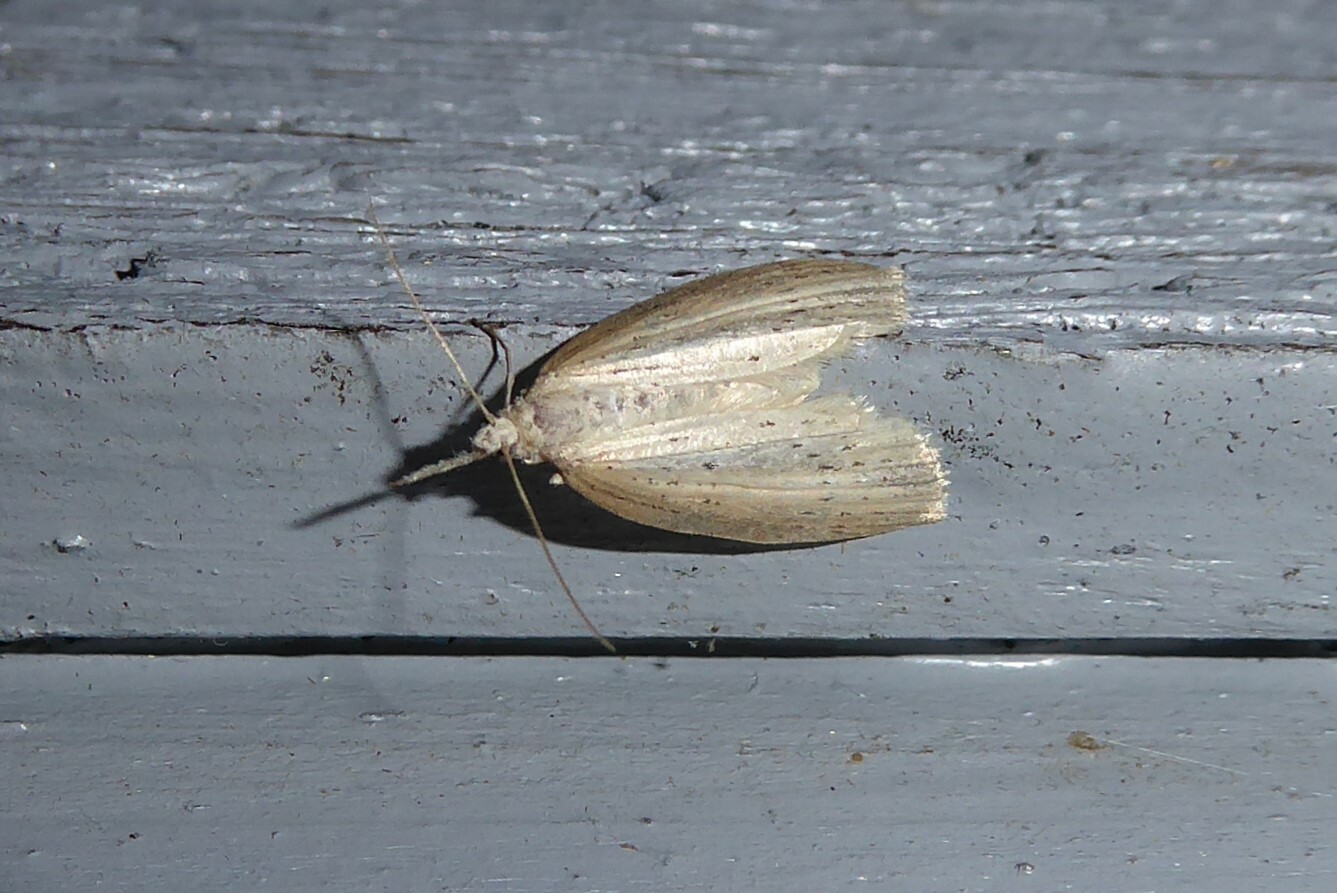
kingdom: Animalia
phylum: Arthropoda
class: Insecta
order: Lepidoptera
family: Geometridae
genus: Microdes
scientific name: Microdes epicryptis
